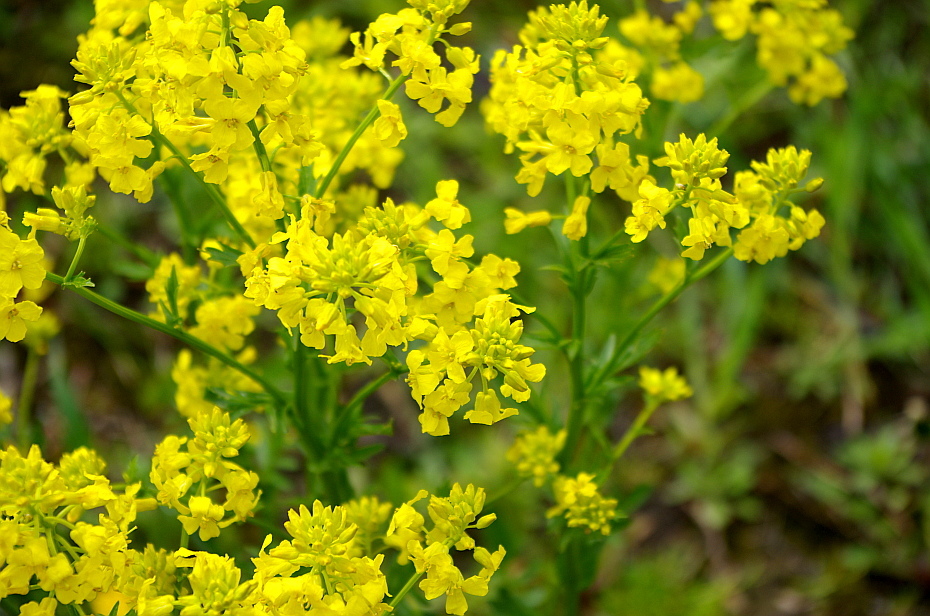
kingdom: Plantae
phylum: Tracheophyta
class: Magnoliopsida
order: Brassicales
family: Brassicaceae
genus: Barbarea
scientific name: Barbarea vulgaris
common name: Cressy-greens
